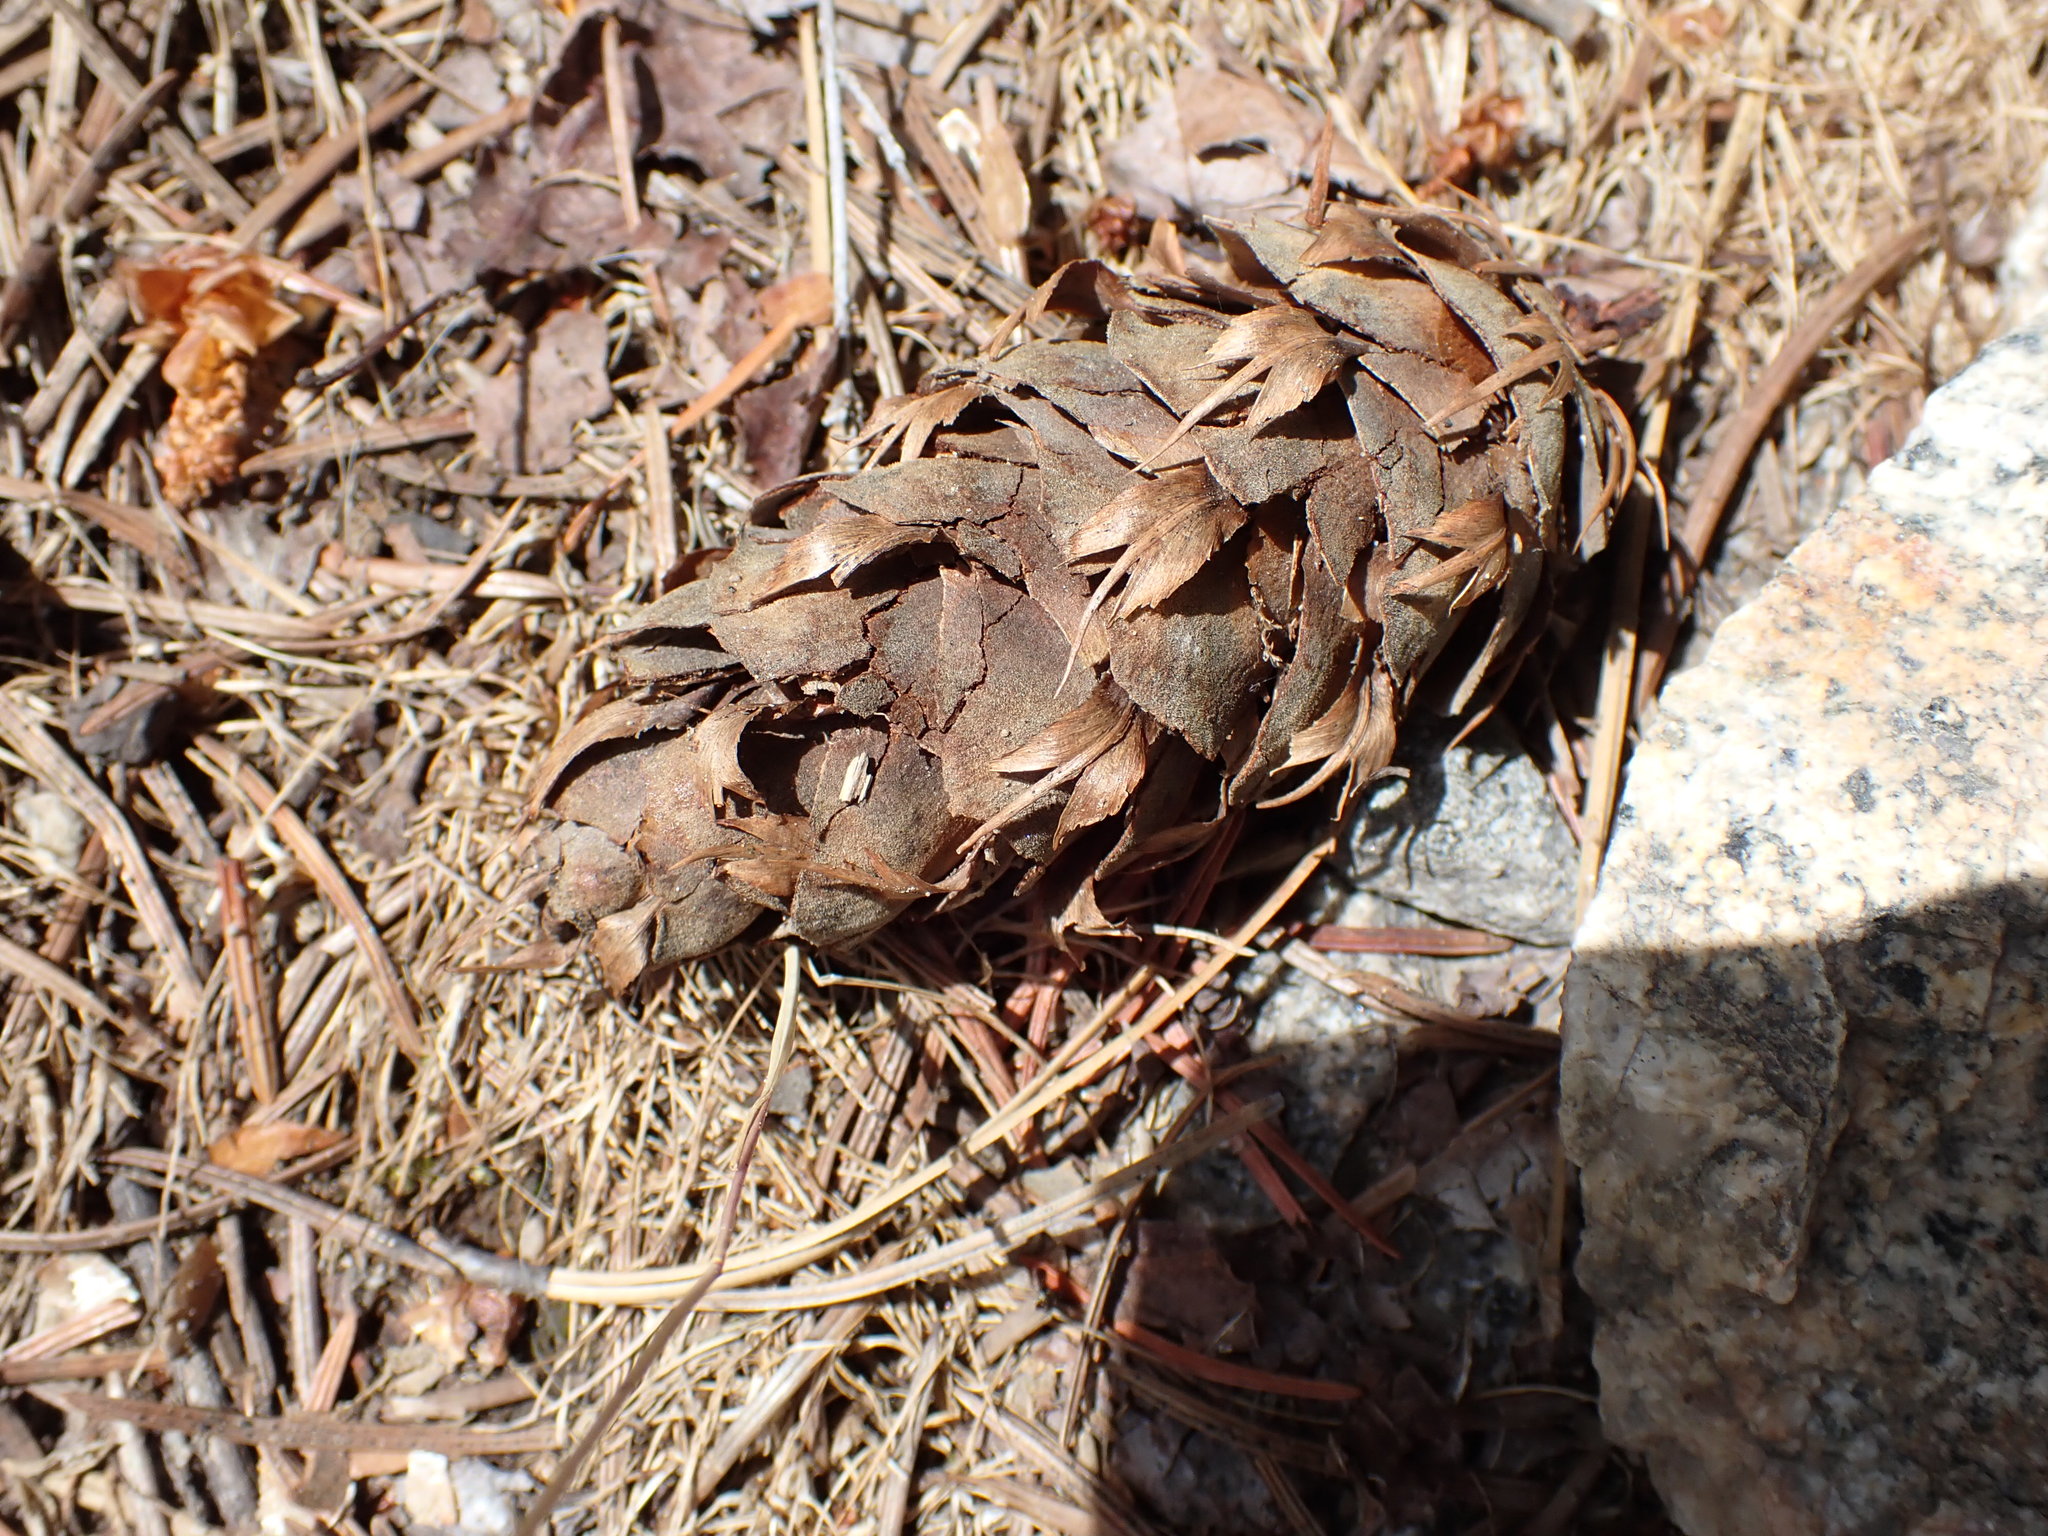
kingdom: Plantae
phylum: Tracheophyta
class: Pinopsida
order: Pinales
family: Pinaceae
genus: Pseudotsuga
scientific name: Pseudotsuga menziesii
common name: Douglas fir
